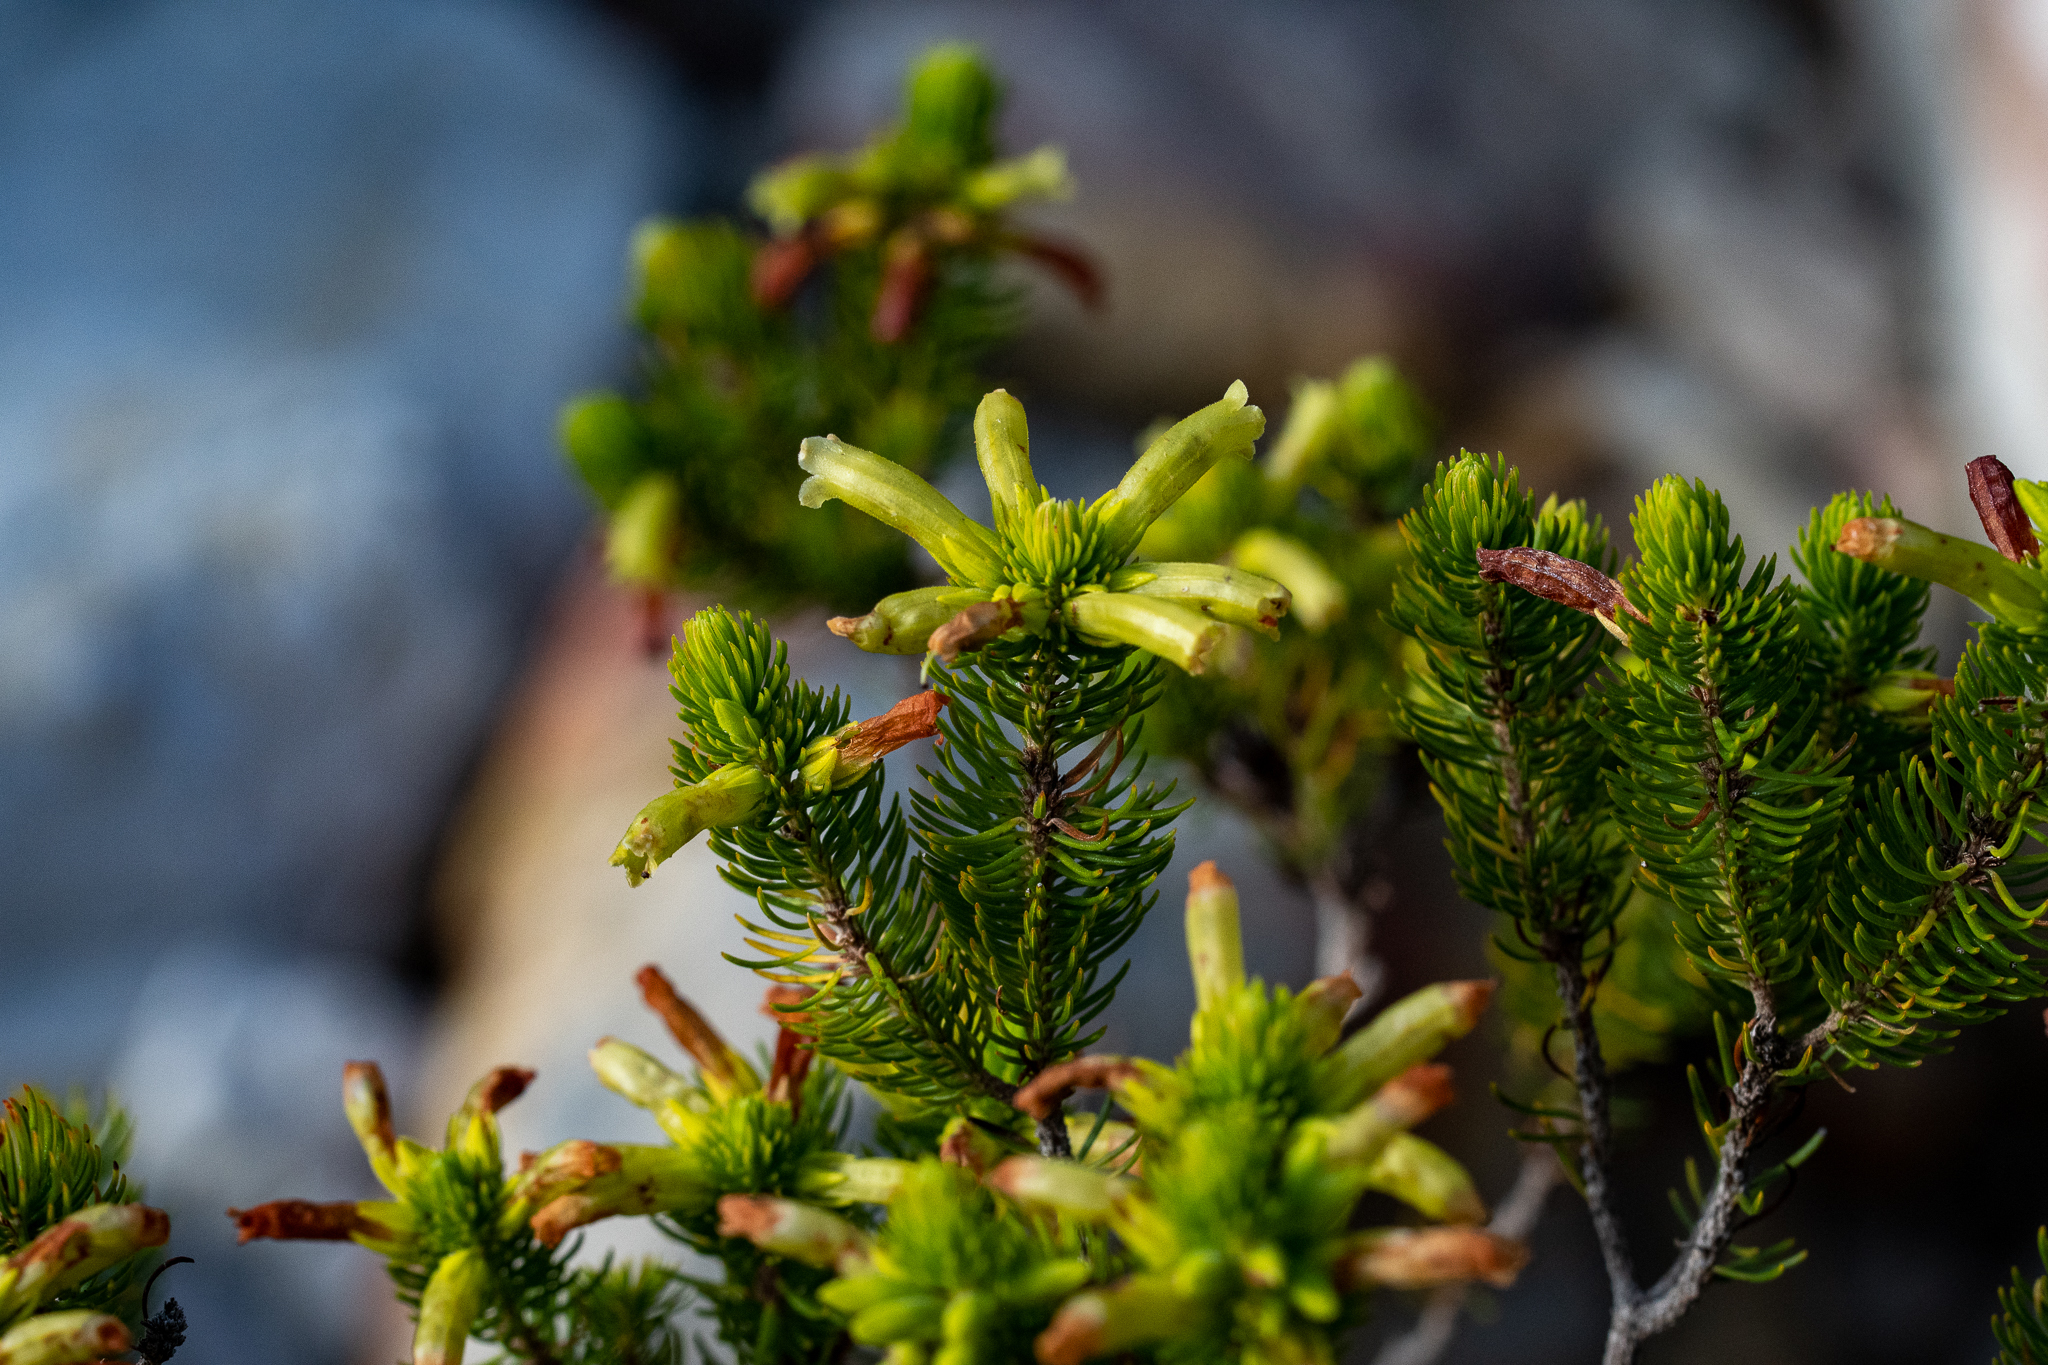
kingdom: Plantae
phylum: Tracheophyta
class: Magnoliopsida
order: Ericales
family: Ericaceae
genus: Erica
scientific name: Erica viscaria
